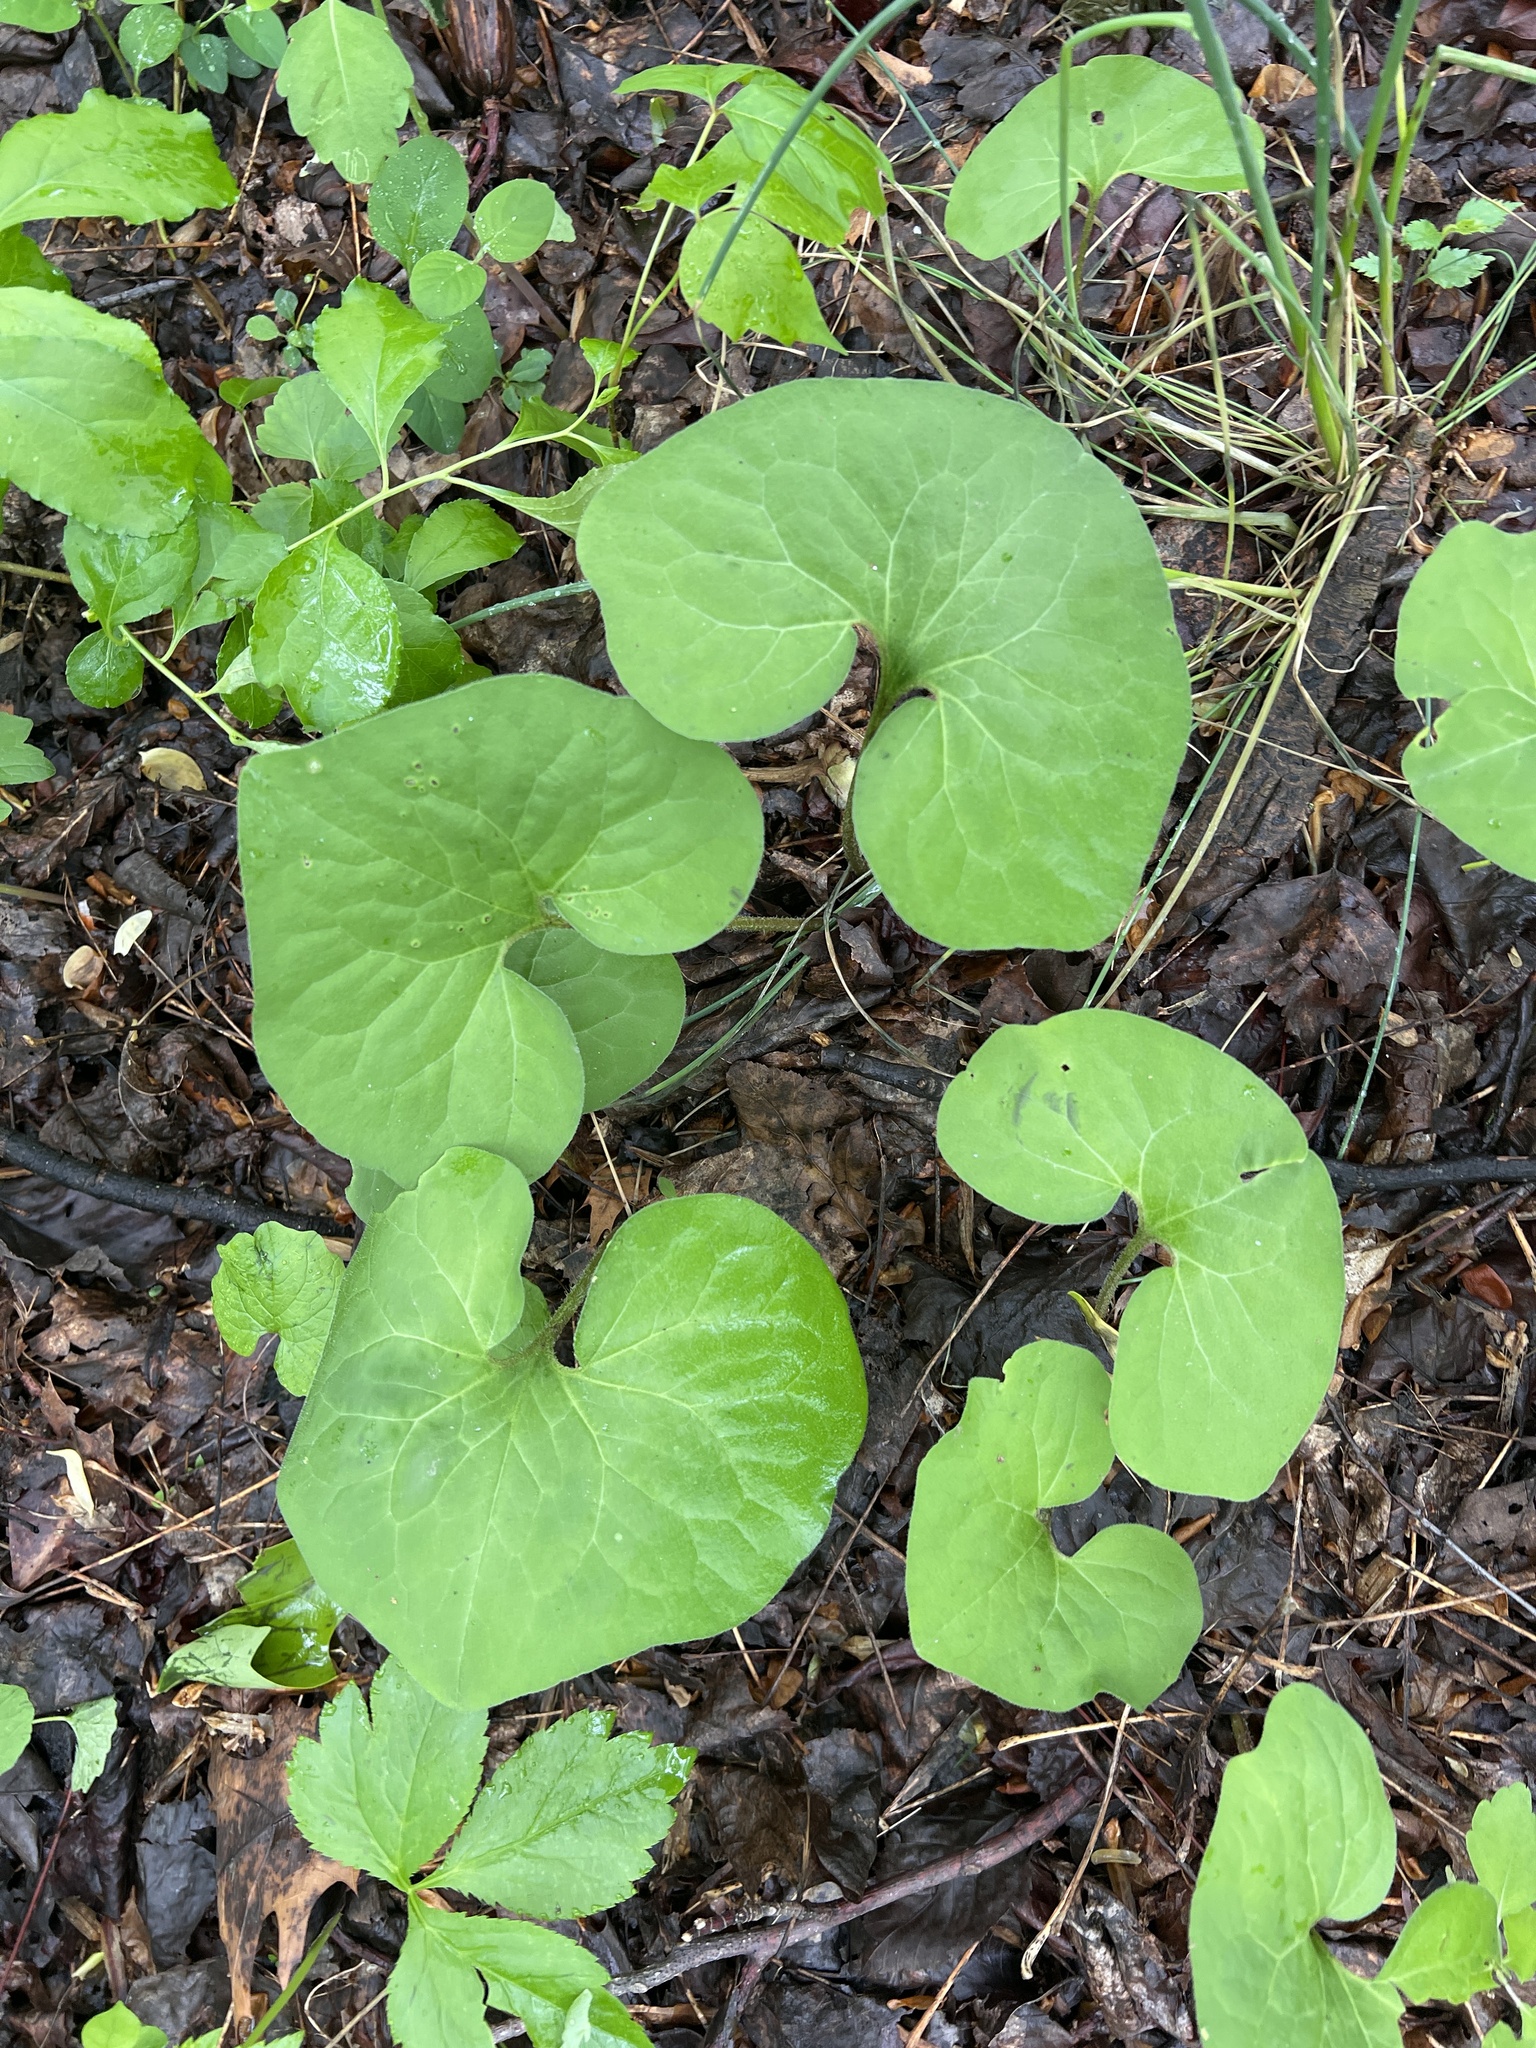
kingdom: Plantae
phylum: Tracheophyta
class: Magnoliopsida
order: Piperales
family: Aristolochiaceae
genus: Asarum
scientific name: Asarum canadense
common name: Wild ginger
